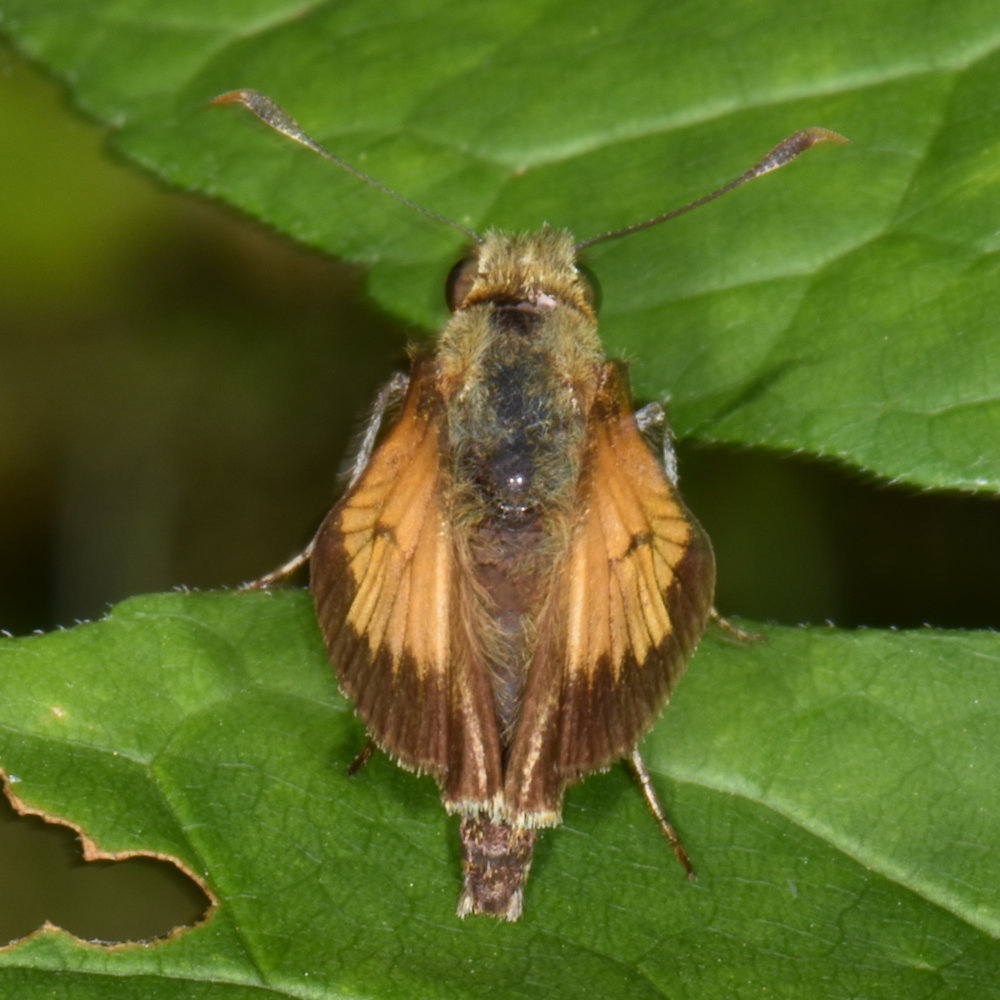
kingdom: Animalia
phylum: Arthropoda
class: Insecta
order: Lepidoptera
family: Hesperiidae
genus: Lon
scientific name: Lon hobomok
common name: Hobomok skipper
